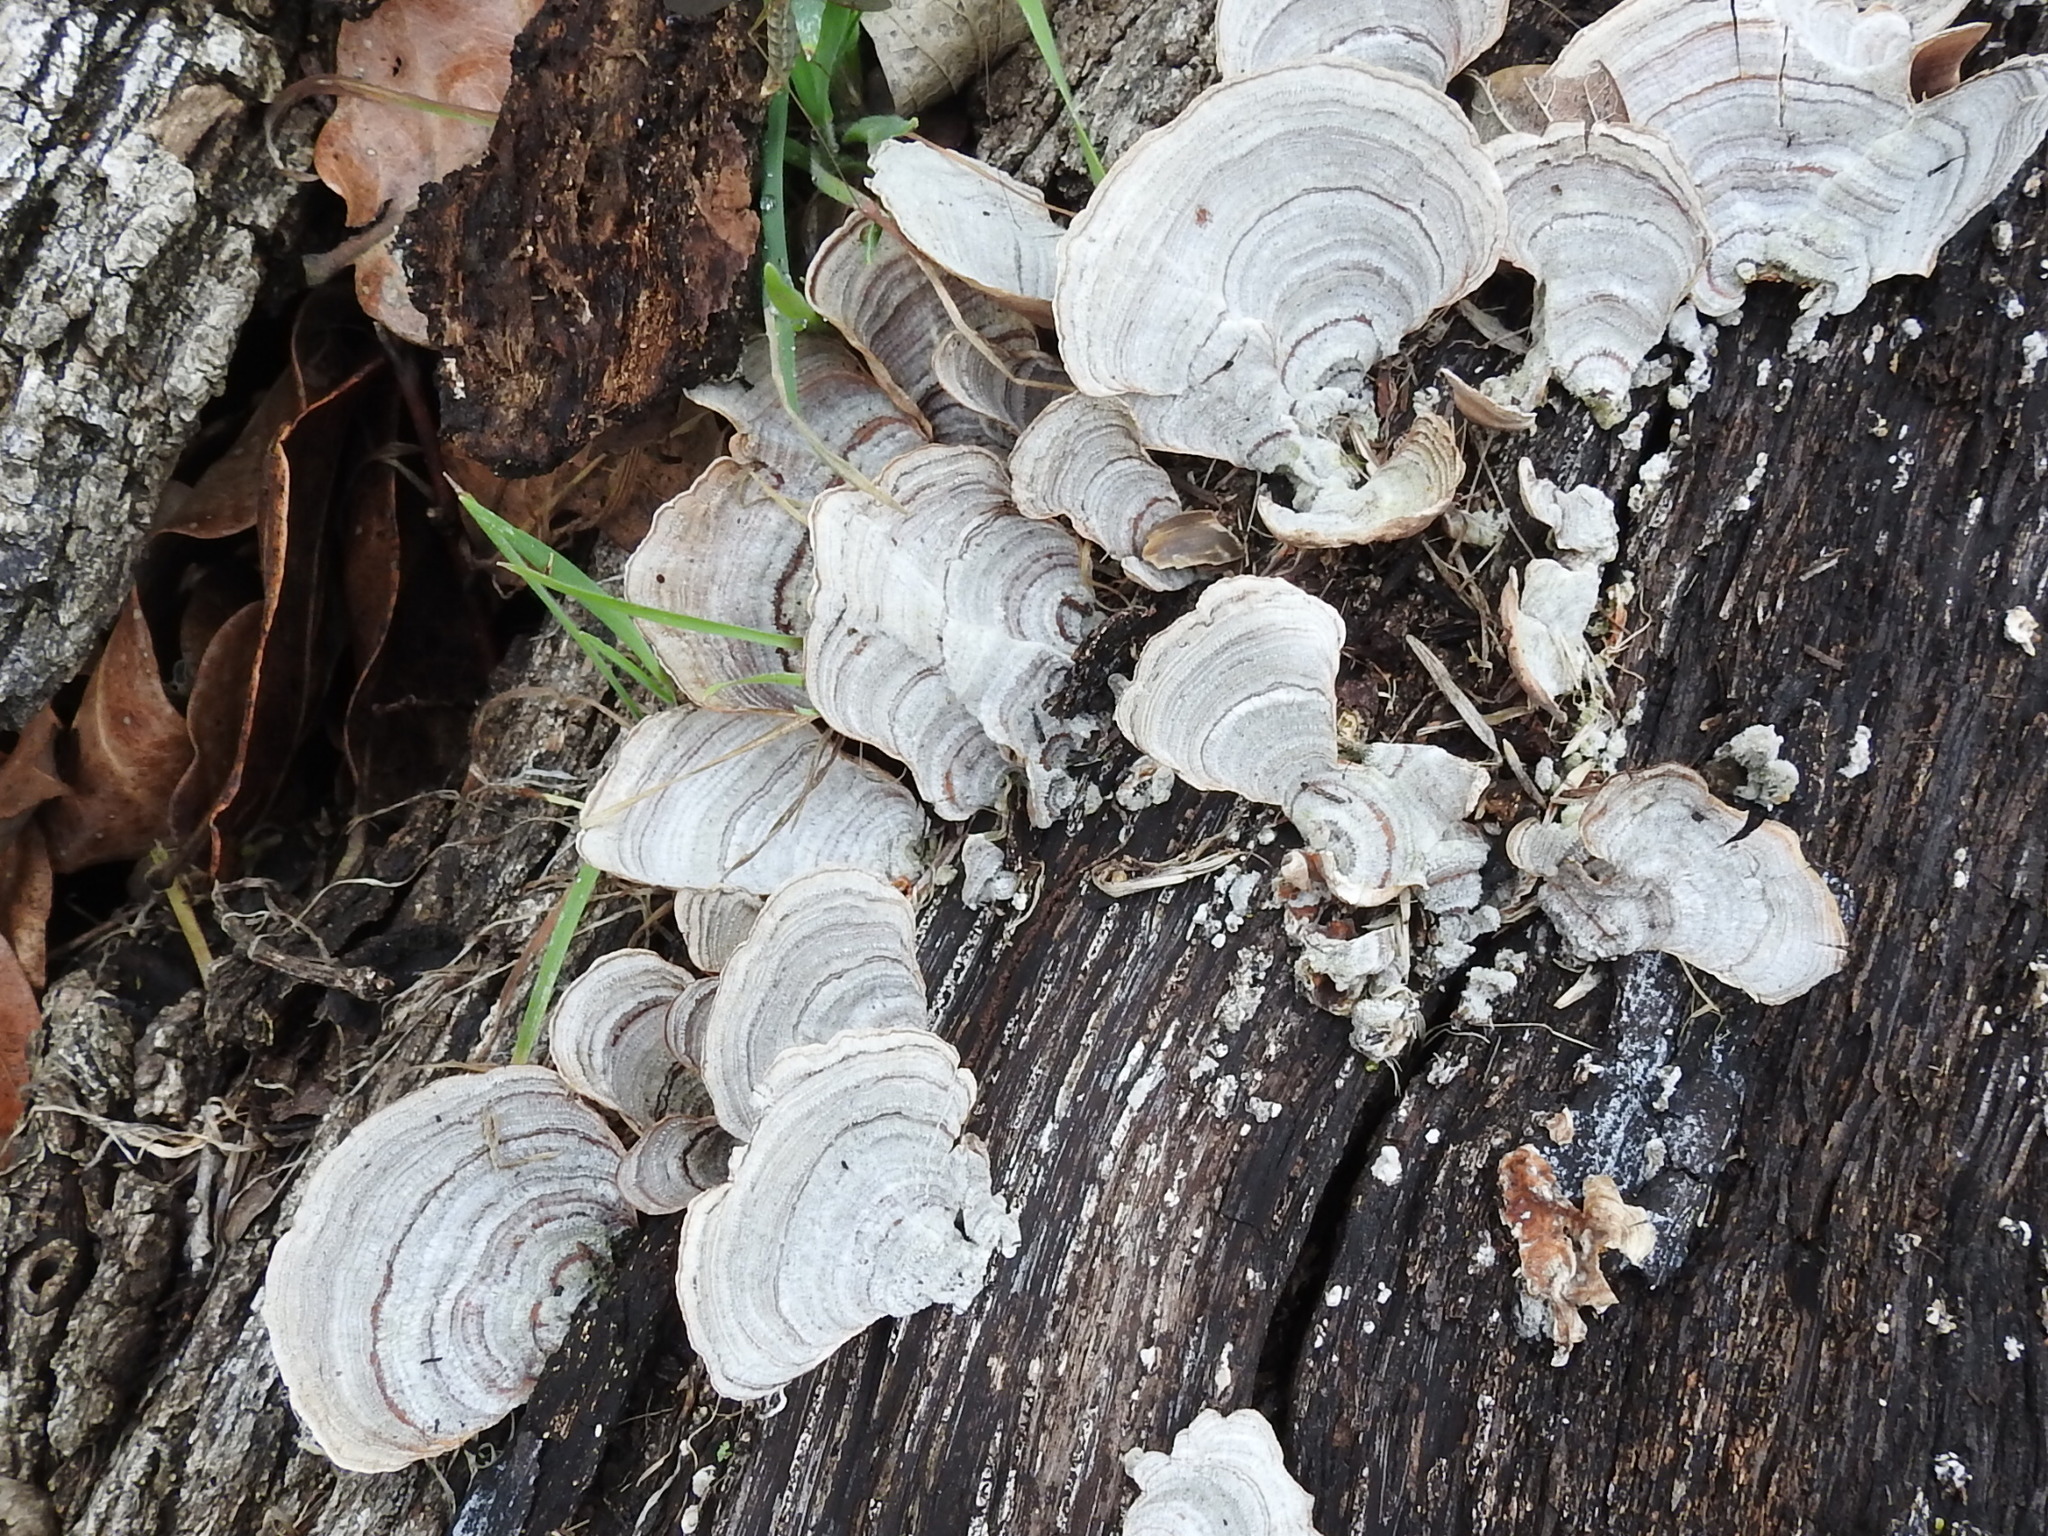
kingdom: Fungi
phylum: Basidiomycota
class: Agaricomycetes
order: Russulales
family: Stereaceae
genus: Stereum
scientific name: Stereum ostrea
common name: False turkeytail
